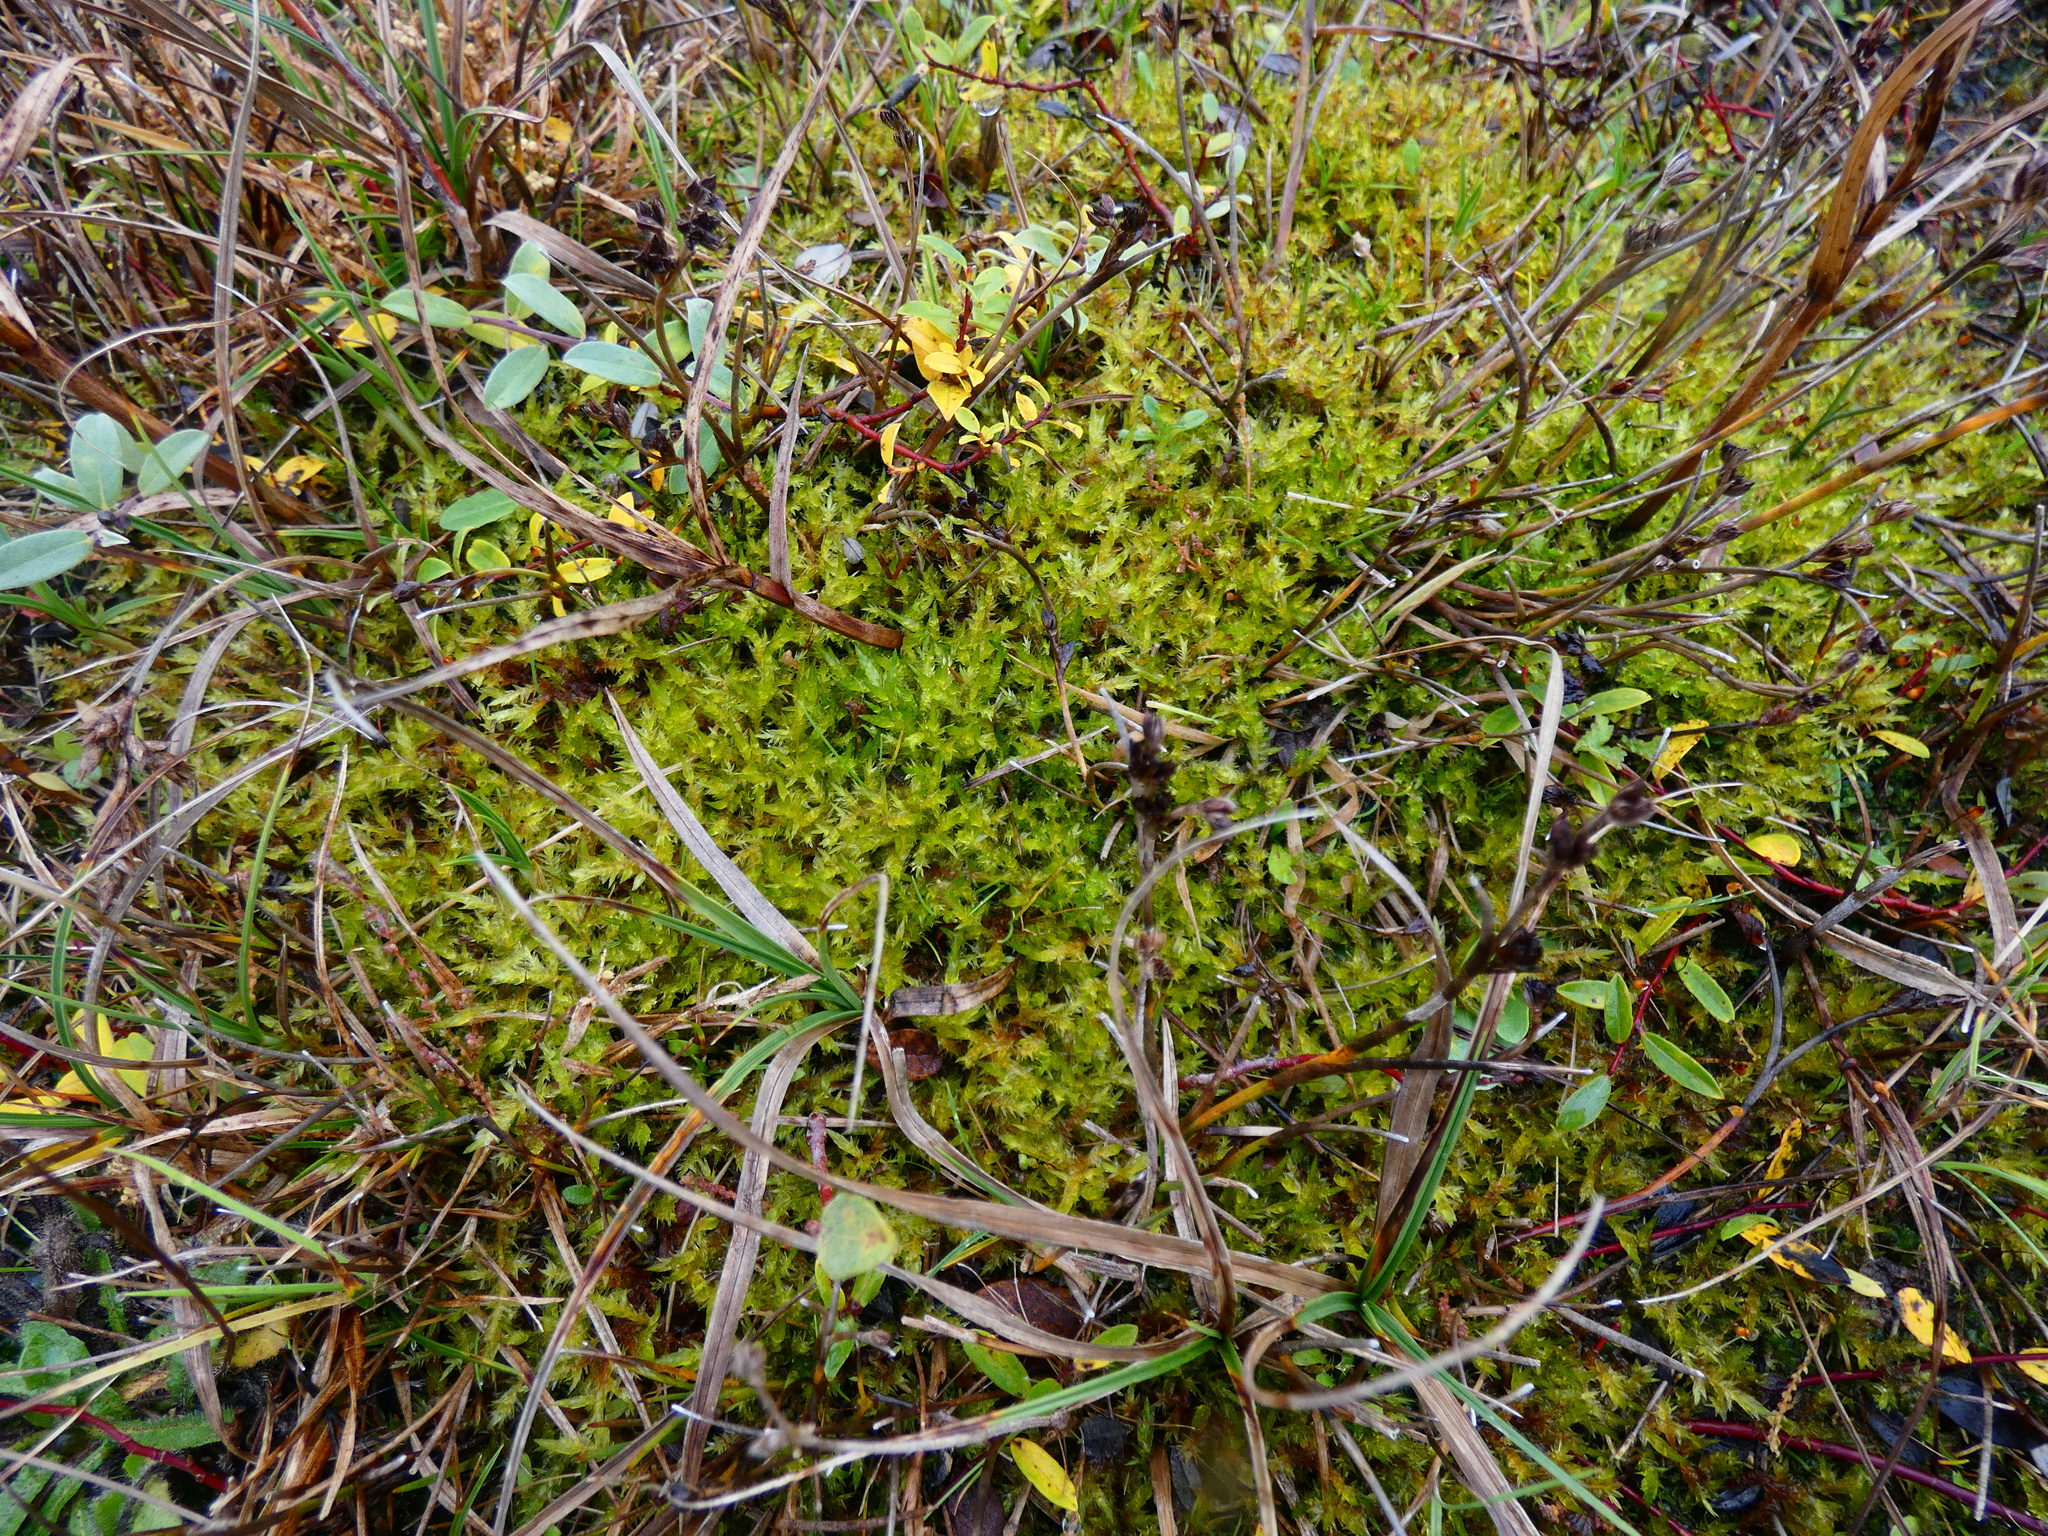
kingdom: Plantae
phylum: Bryophyta
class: Bryopsida
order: Hypnales
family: Pylaisiaceae
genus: Calliergonella
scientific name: Calliergonella cuspidata
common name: Common large wetland moss
